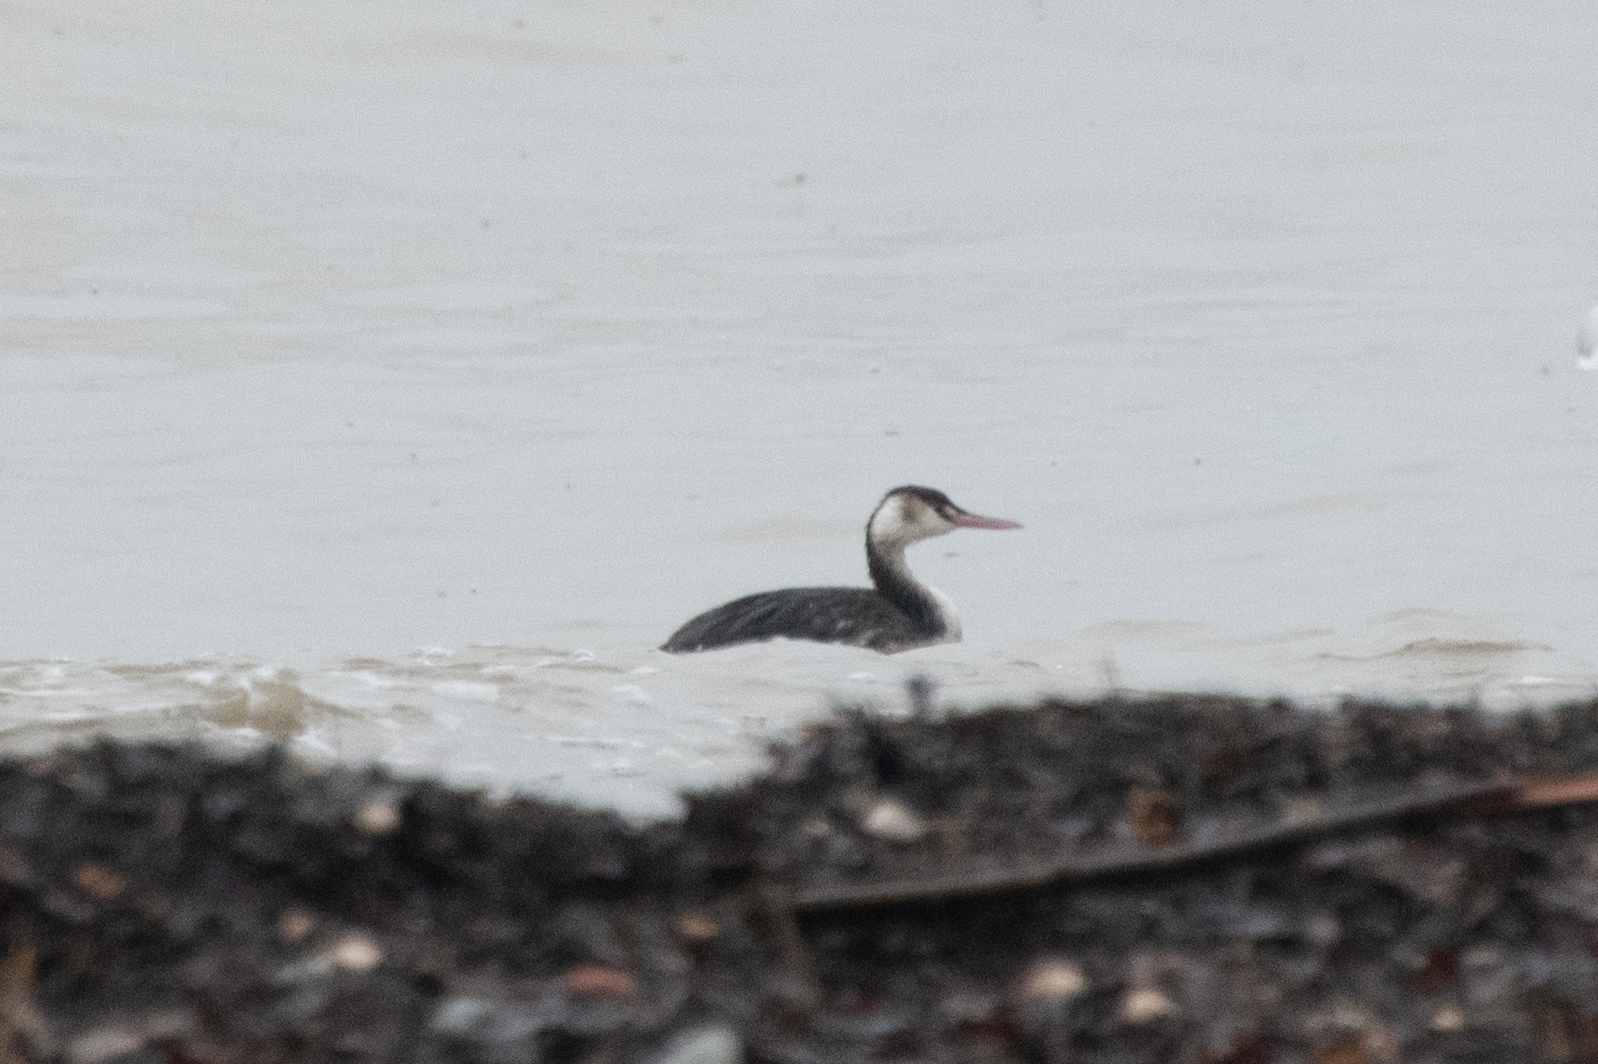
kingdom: Animalia
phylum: Chordata
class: Aves
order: Podicipediformes
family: Podicipedidae
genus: Podiceps
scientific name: Podiceps cristatus
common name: Great crested grebe
